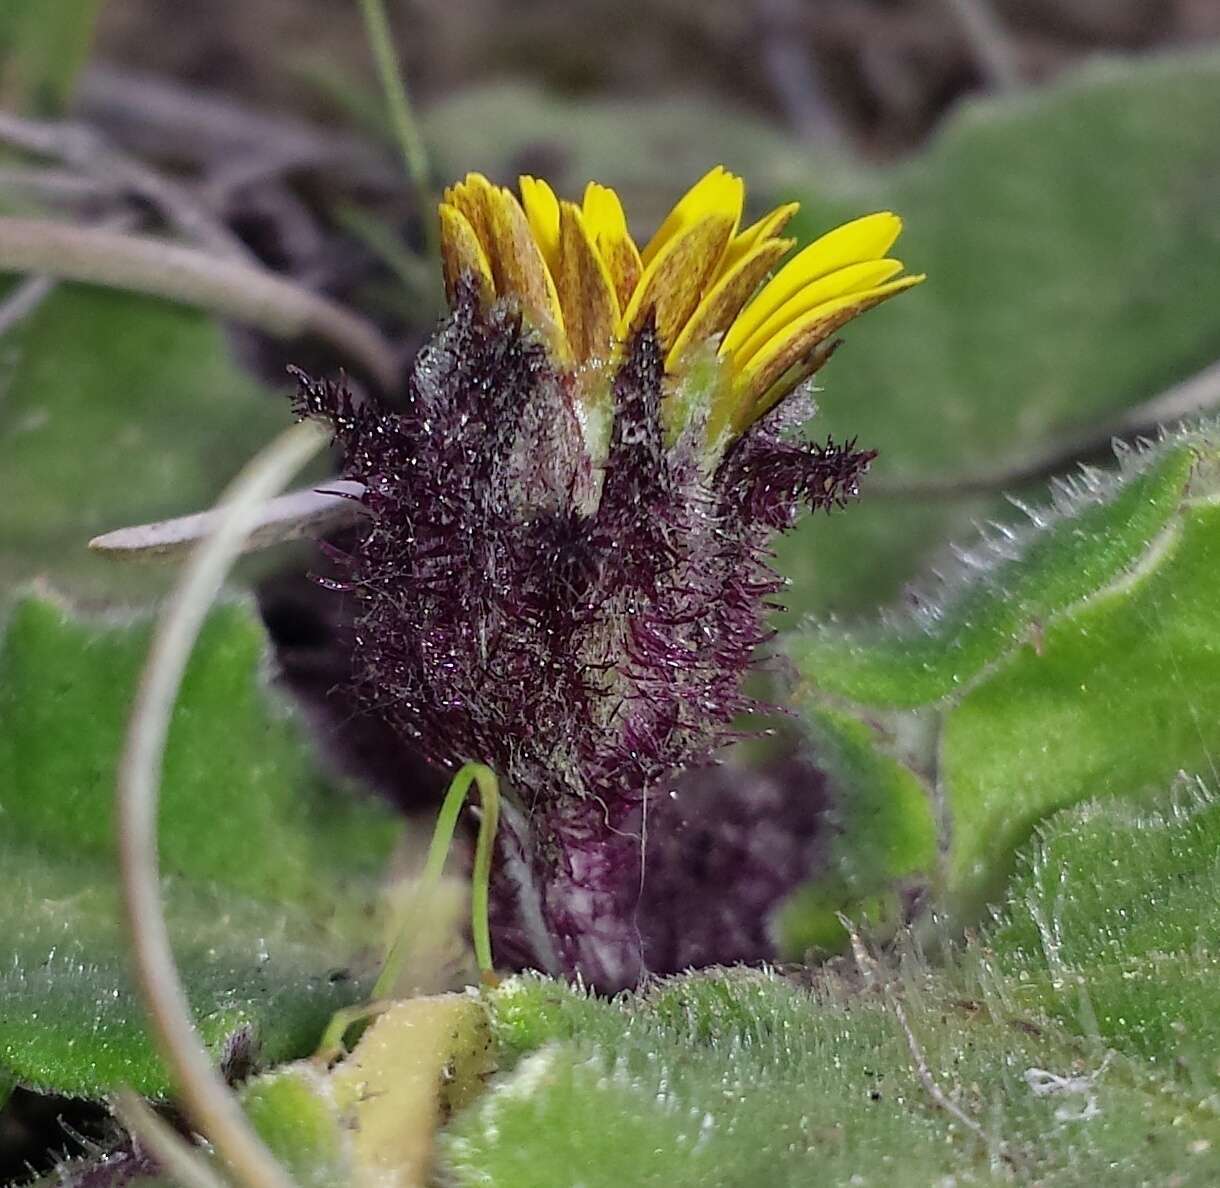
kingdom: Plantae
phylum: Tracheophyta
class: Magnoliopsida
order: Asterales
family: Asteraceae
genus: Cymbonotus
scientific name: Cymbonotus preissianus
